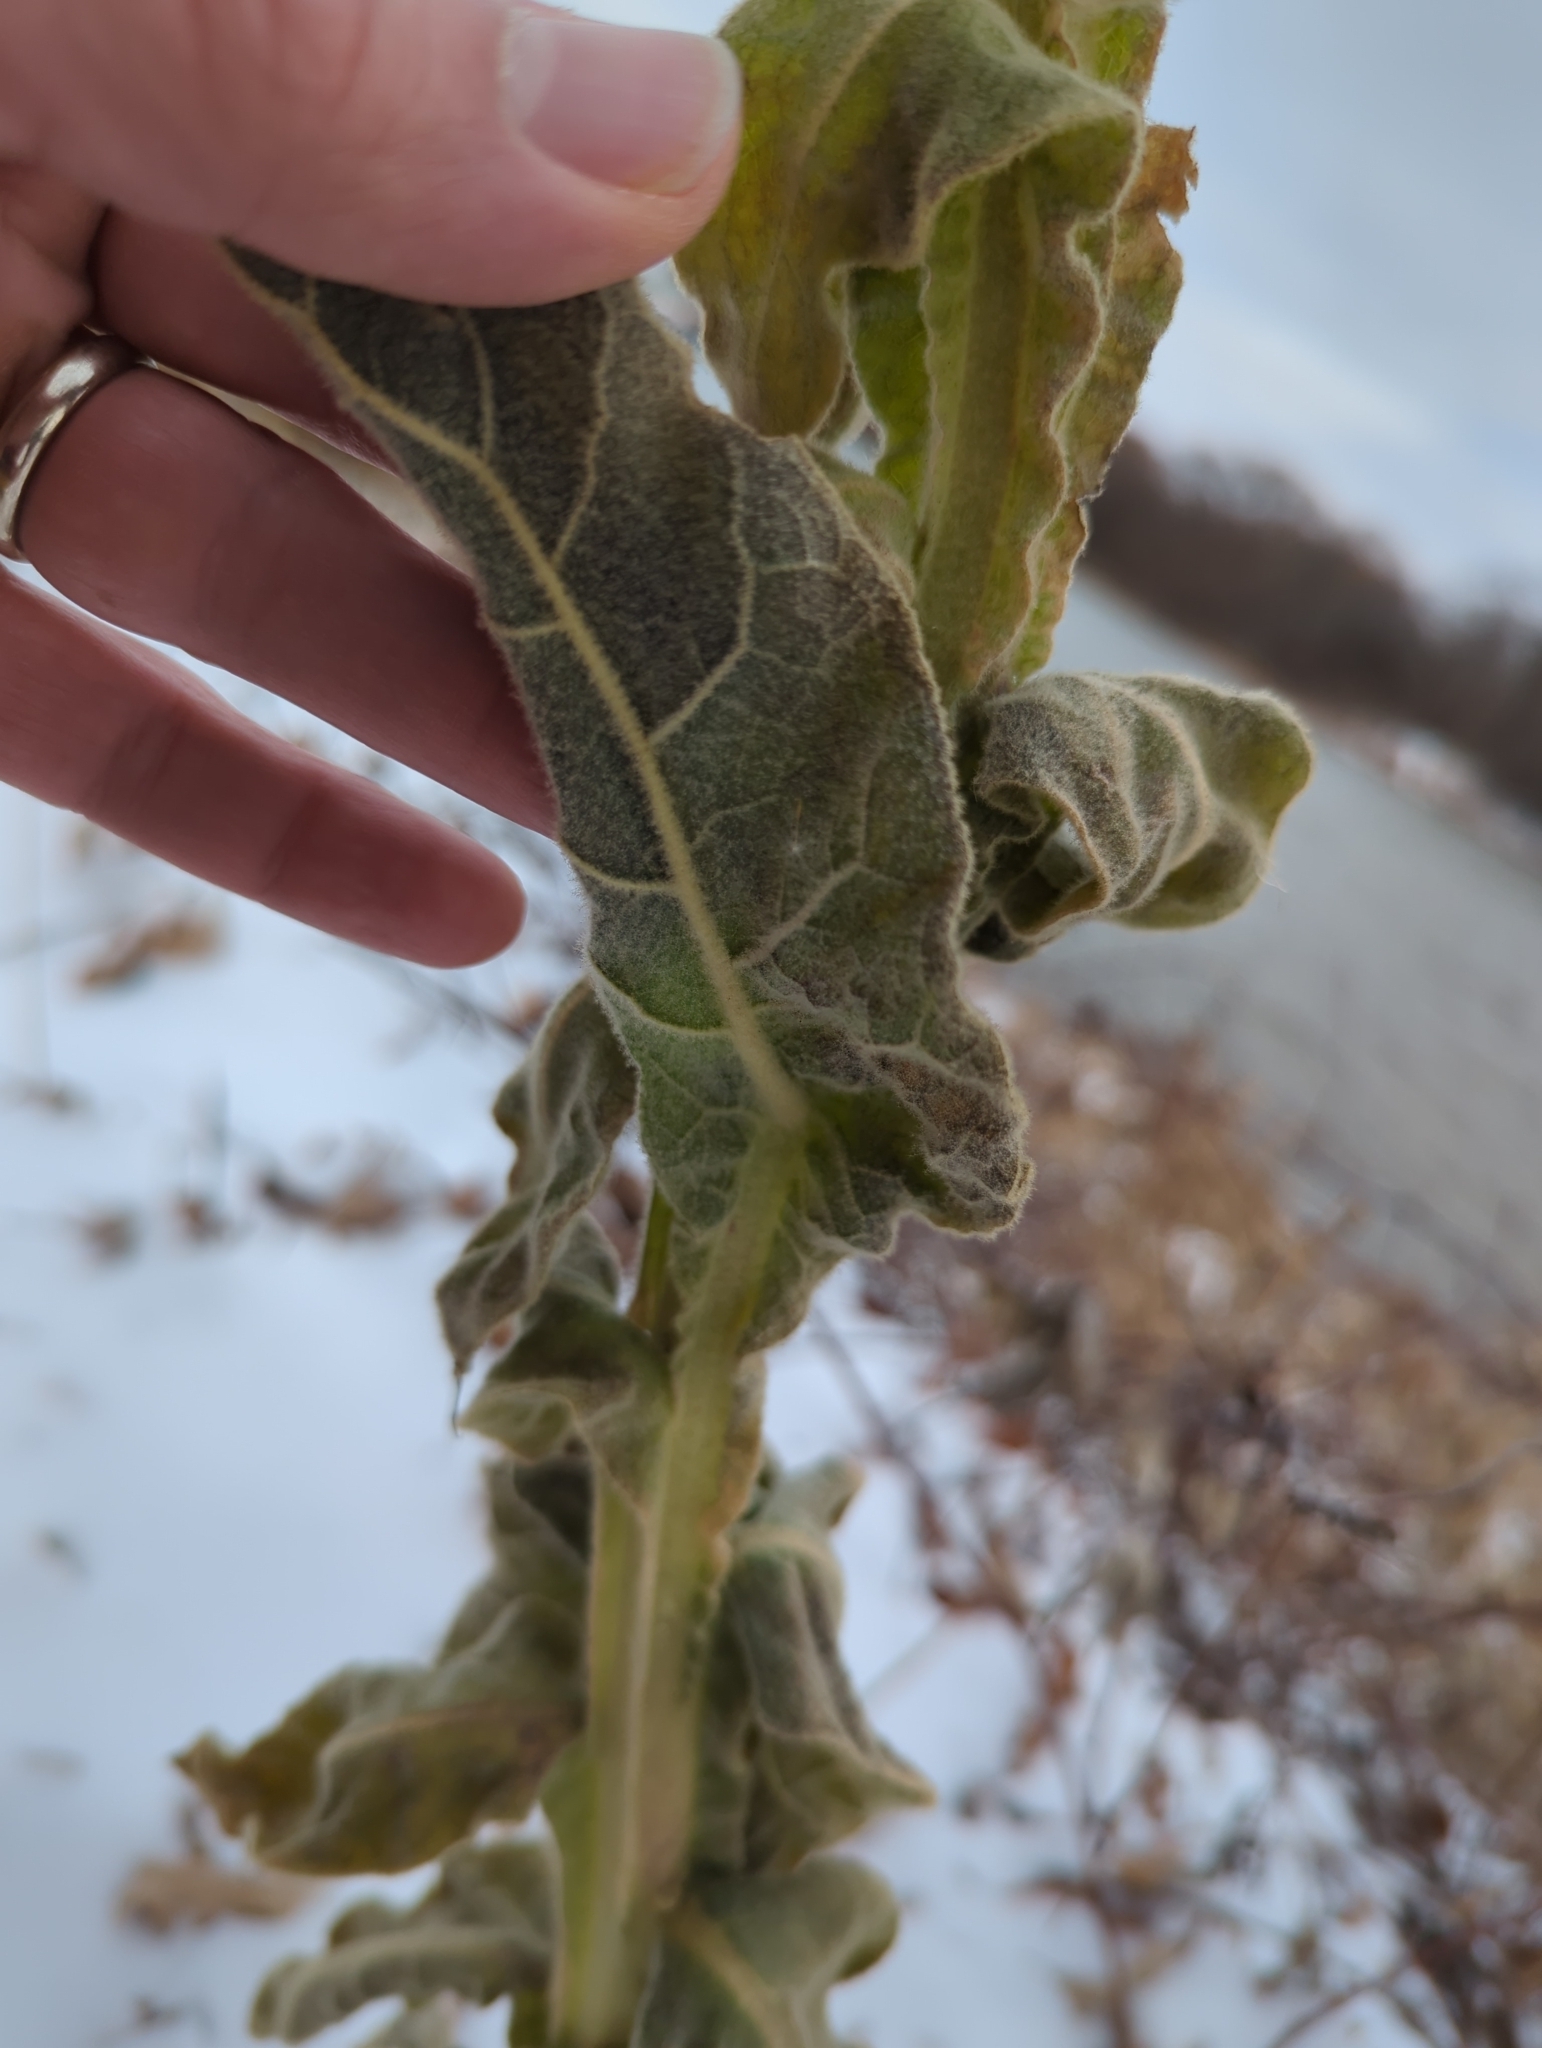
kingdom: Plantae
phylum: Tracheophyta
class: Magnoliopsida
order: Lamiales
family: Scrophulariaceae
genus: Verbascum
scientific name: Verbascum thapsus
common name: Common mullein
